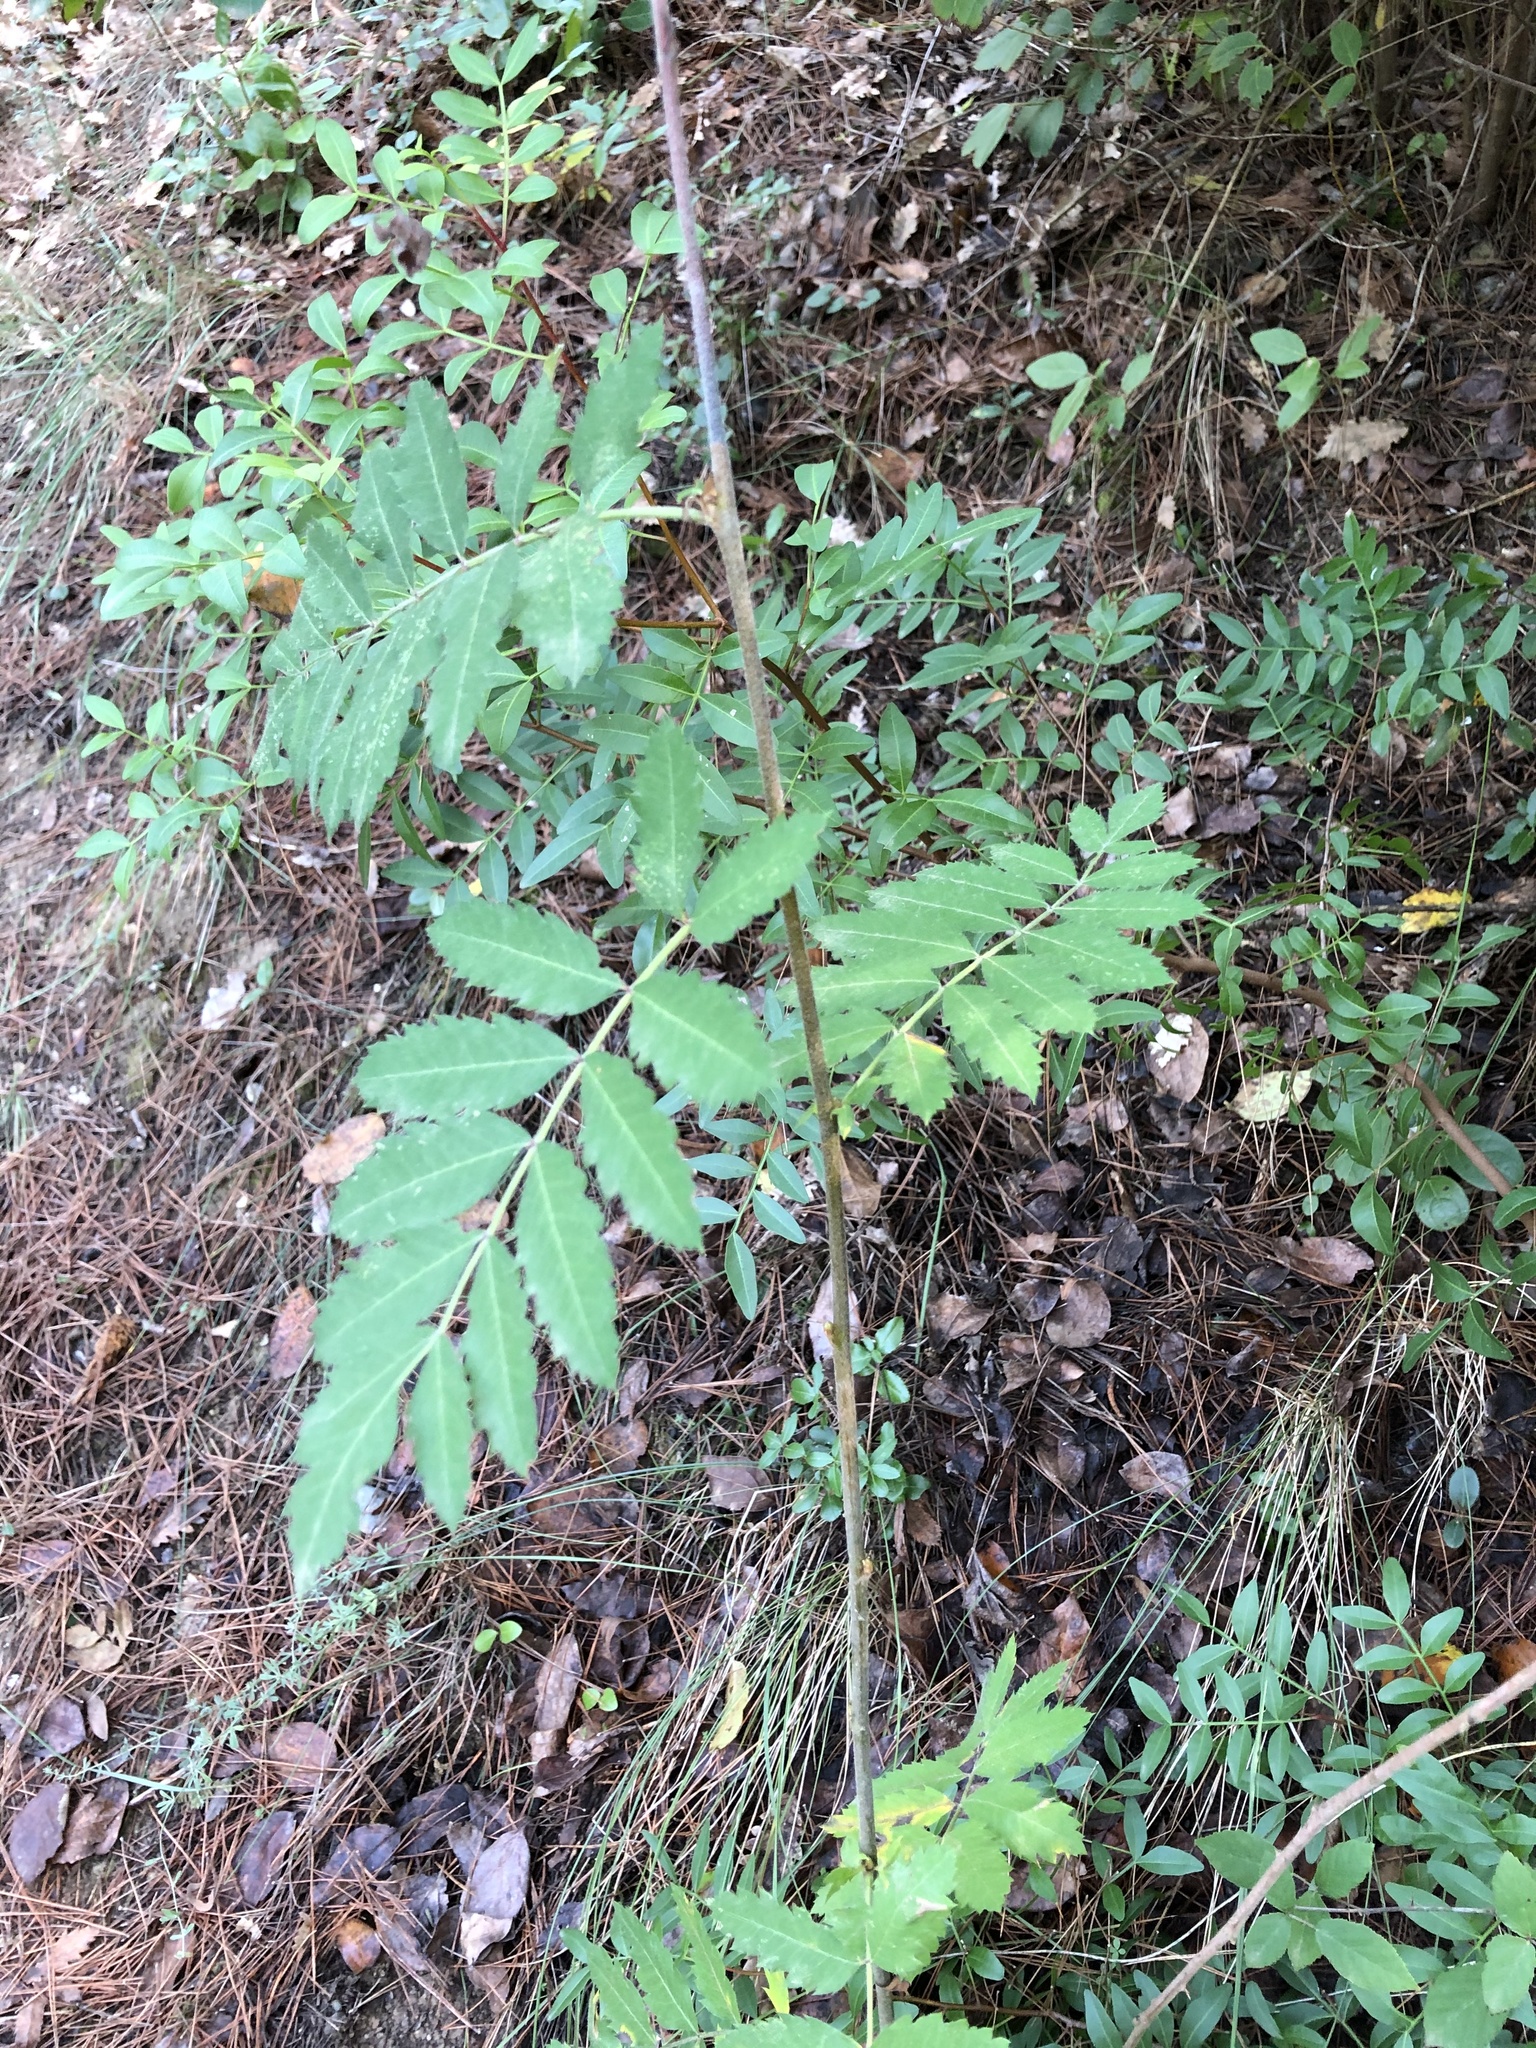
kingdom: Plantae
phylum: Tracheophyta
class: Magnoliopsida
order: Rosales
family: Rosaceae
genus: Cormus
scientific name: Cormus domestica
